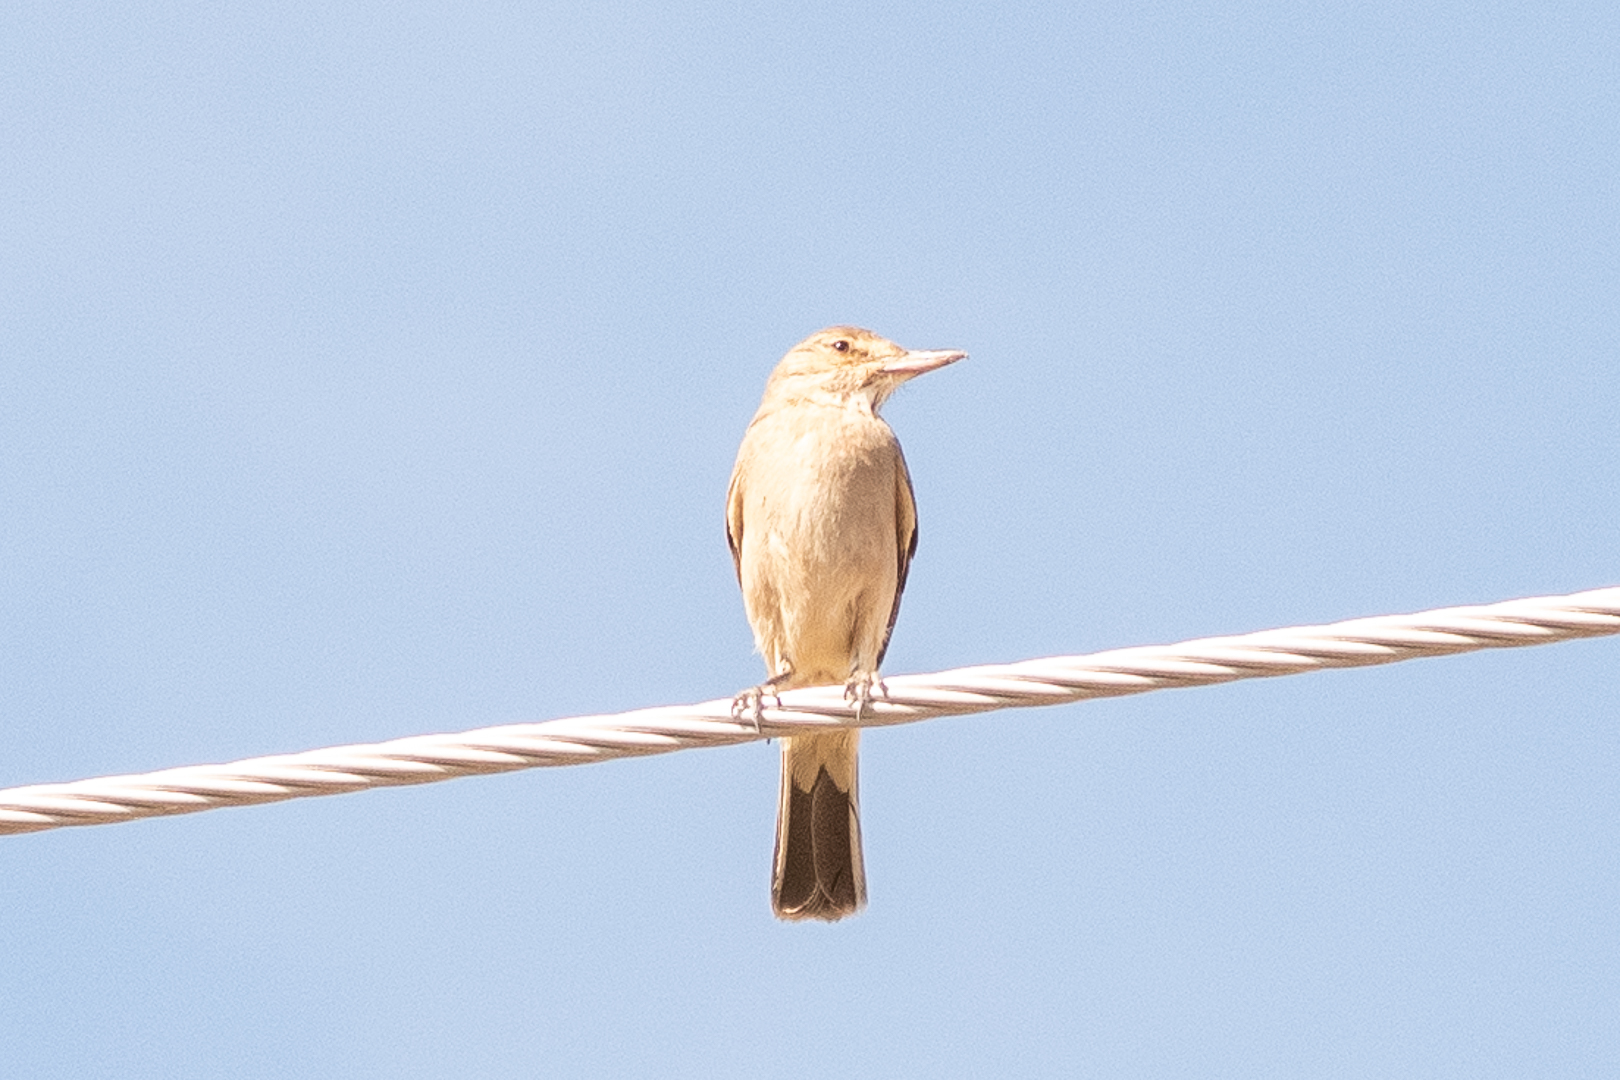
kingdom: Animalia
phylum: Chordata
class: Aves
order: Passeriformes
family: Tyrannidae
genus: Agriornis
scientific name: Agriornis micropterus
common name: Grey-bellied shrike-tyrant
